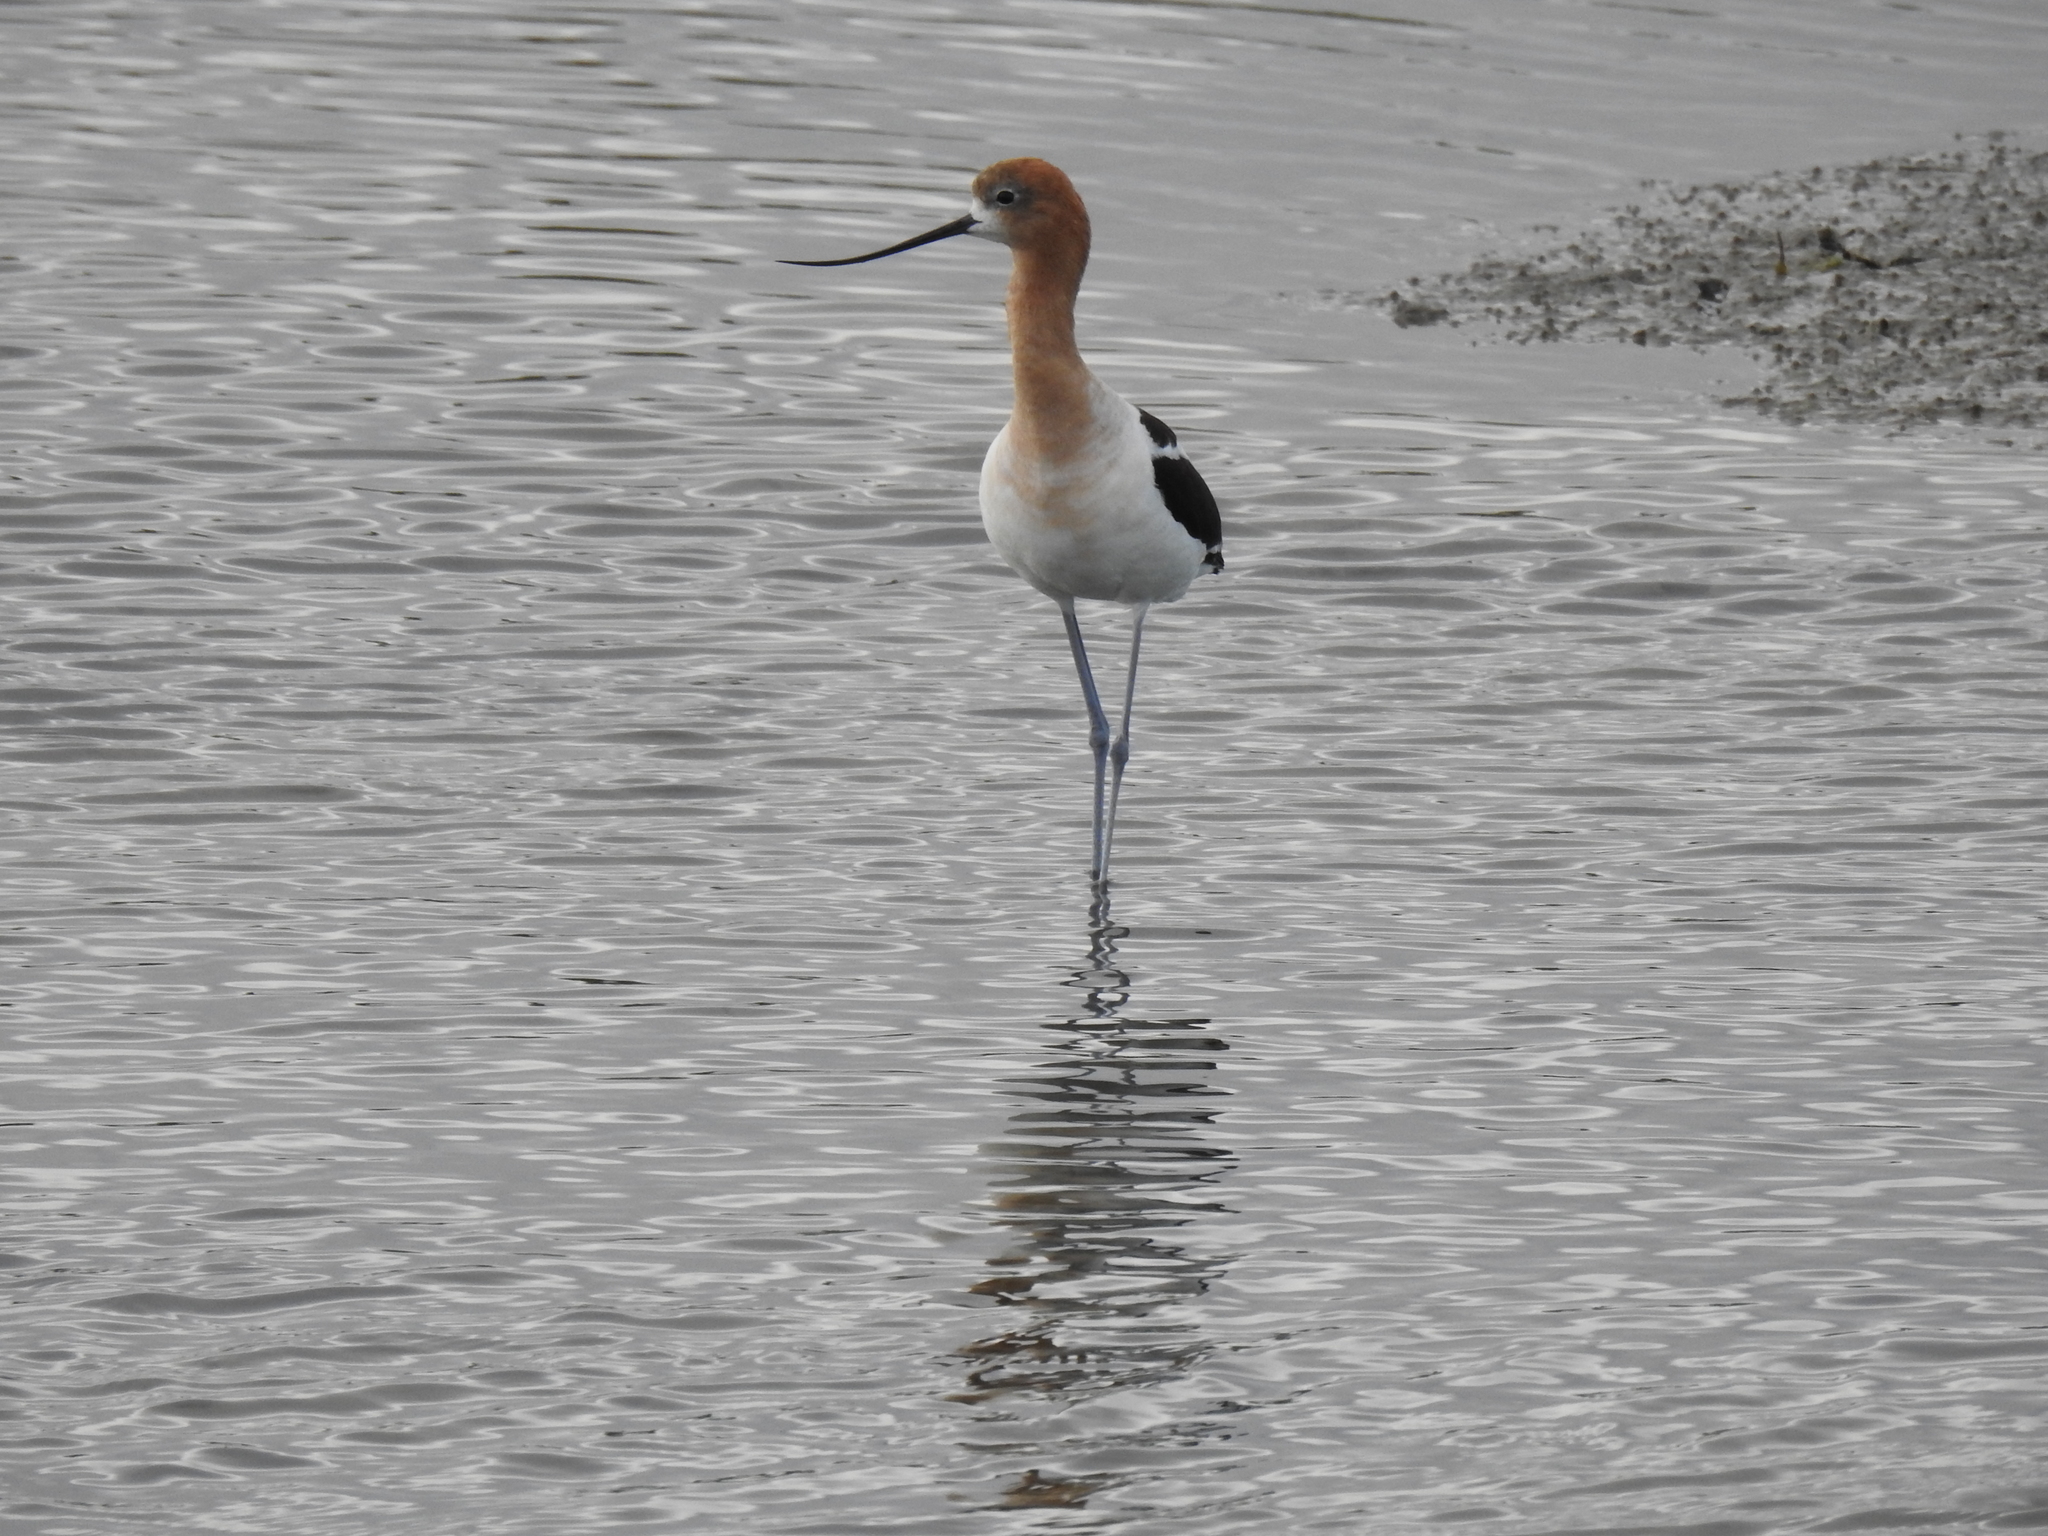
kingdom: Animalia
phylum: Chordata
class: Aves
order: Charadriiformes
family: Recurvirostridae
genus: Recurvirostra
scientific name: Recurvirostra americana
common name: American avocet
